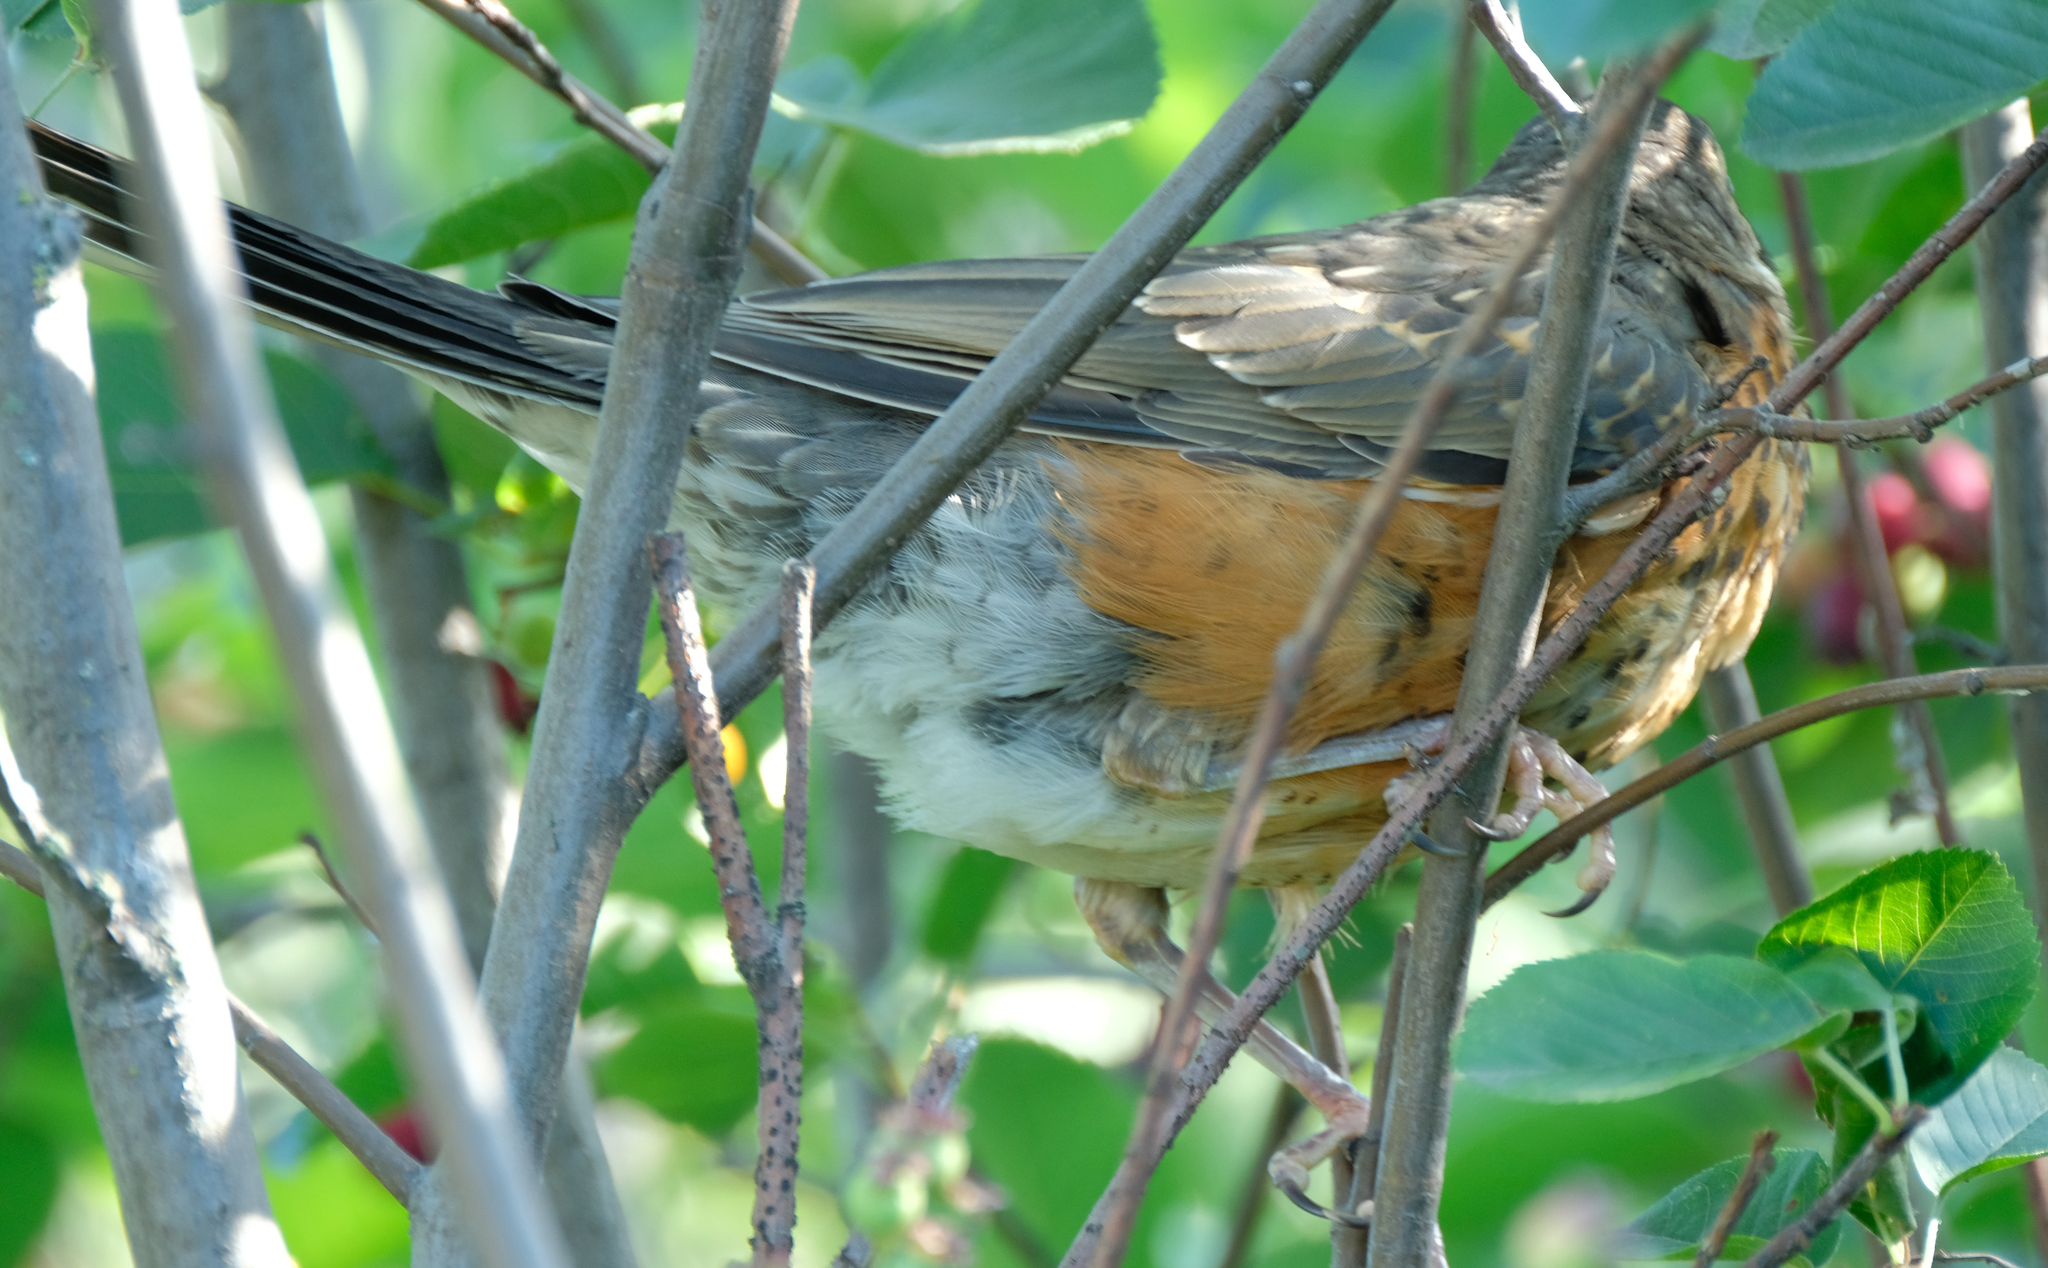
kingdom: Animalia
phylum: Chordata
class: Aves
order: Passeriformes
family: Turdidae
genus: Turdus
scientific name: Turdus migratorius
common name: American robin
